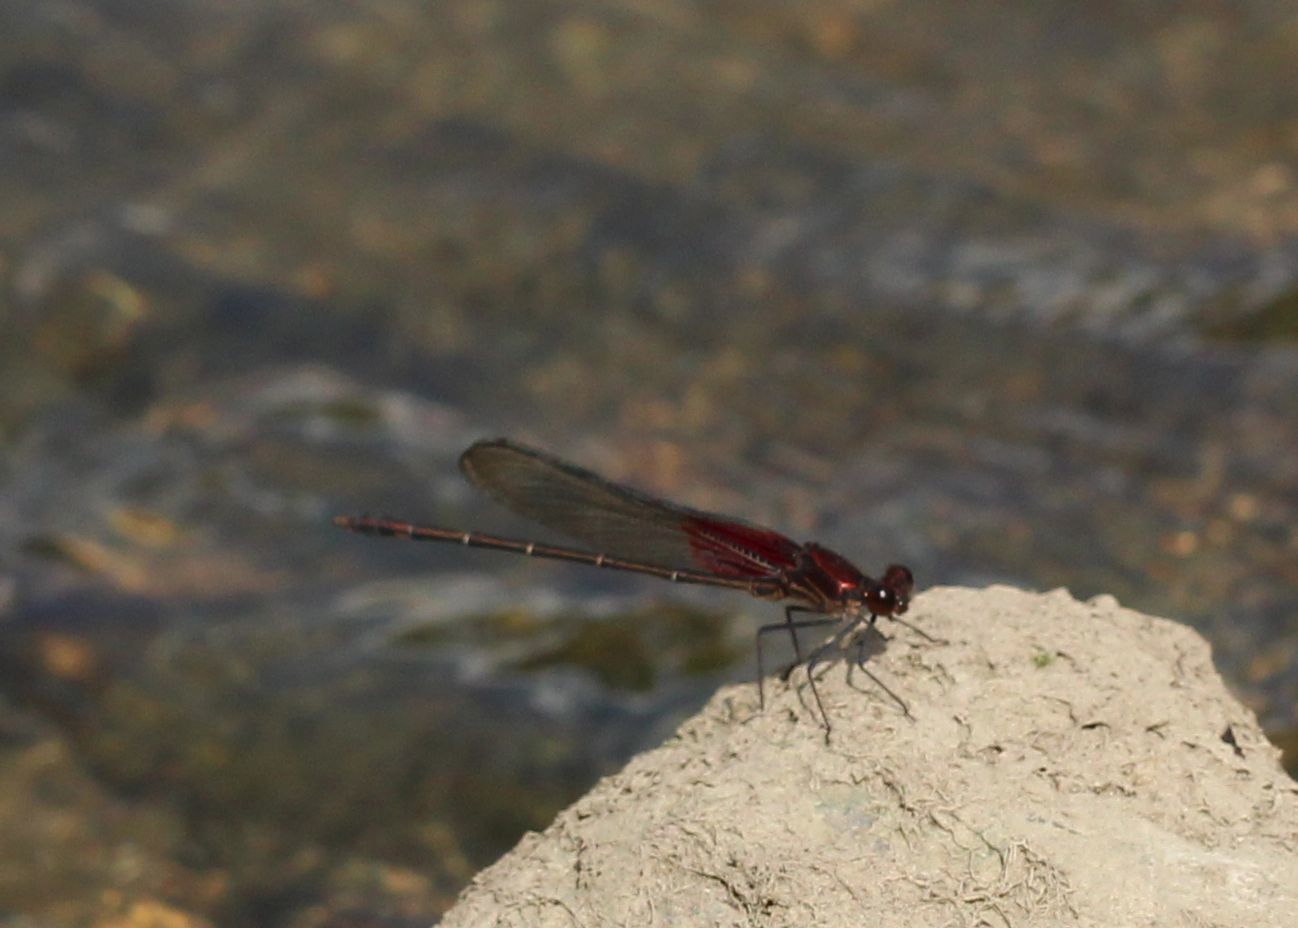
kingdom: Animalia
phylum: Arthropoda
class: Insecta
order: Odonata
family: Calopterygidae
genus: Hetaerina
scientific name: Hetaerina americana
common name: American rubyspot
